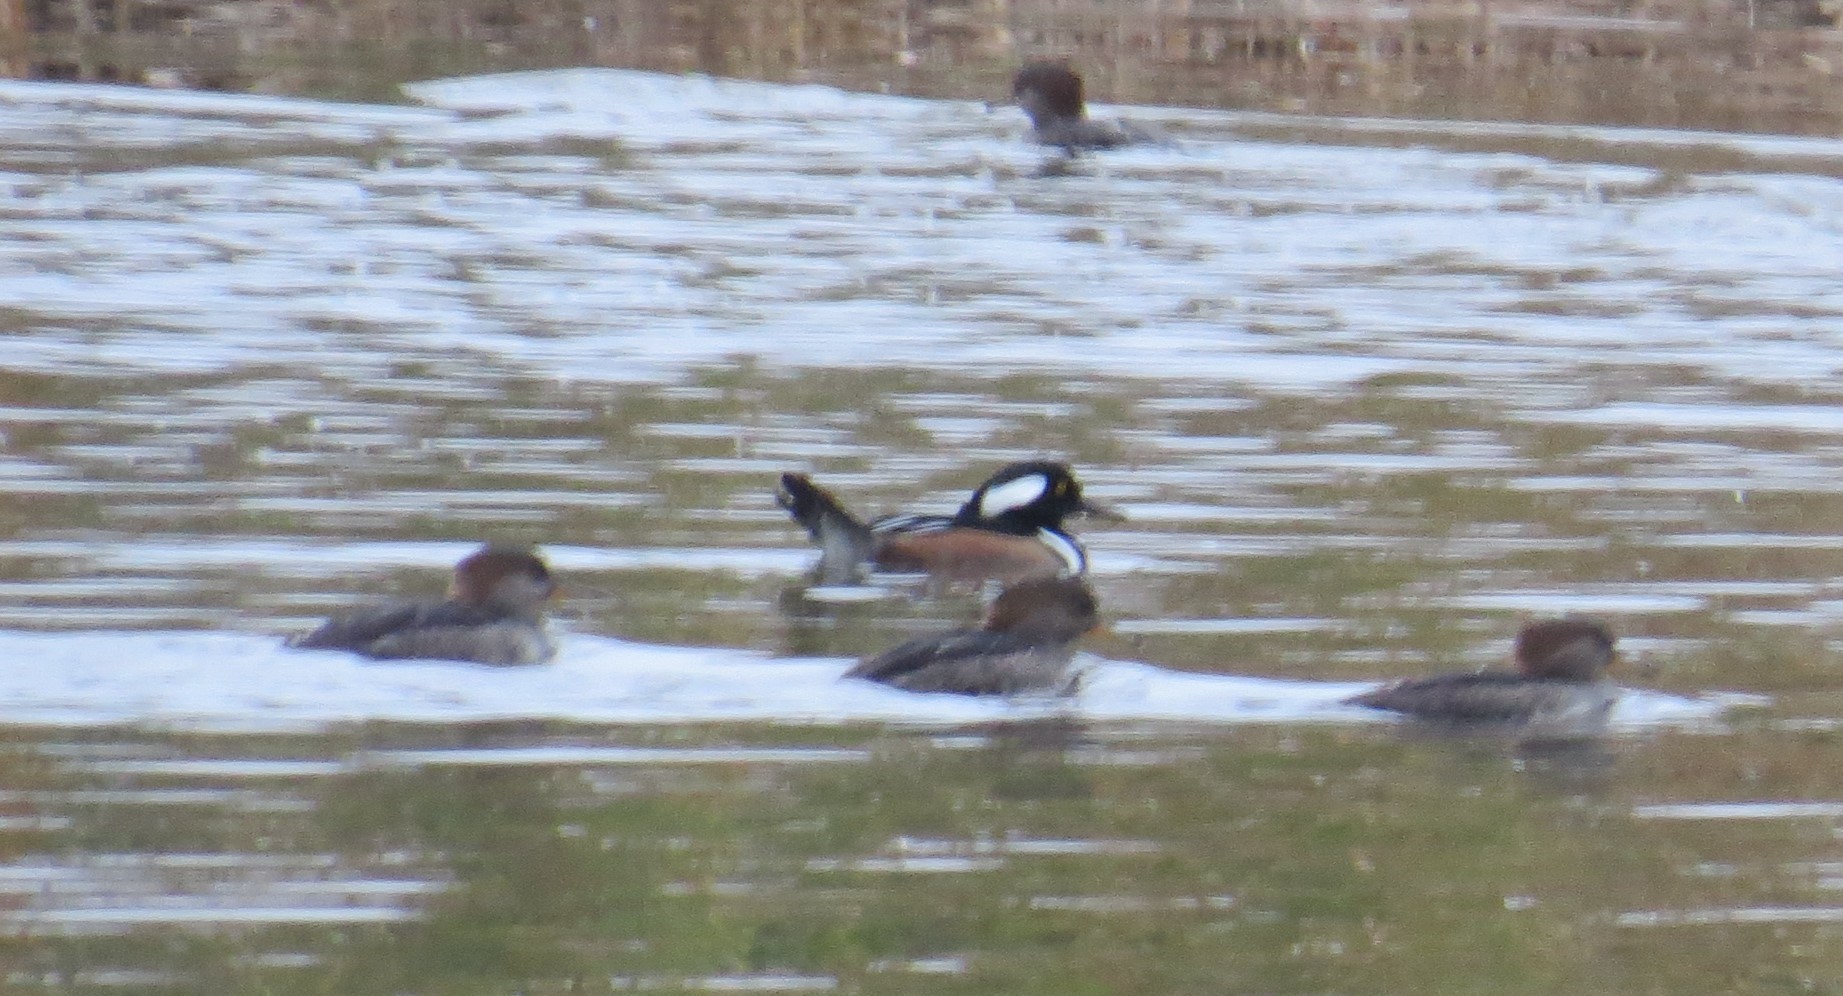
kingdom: Animalia
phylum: Chordata
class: Aves
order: Anseriformes
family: Anatidae
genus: Lophodytes
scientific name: Lophodytes cucullatus
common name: Hooded merganser
